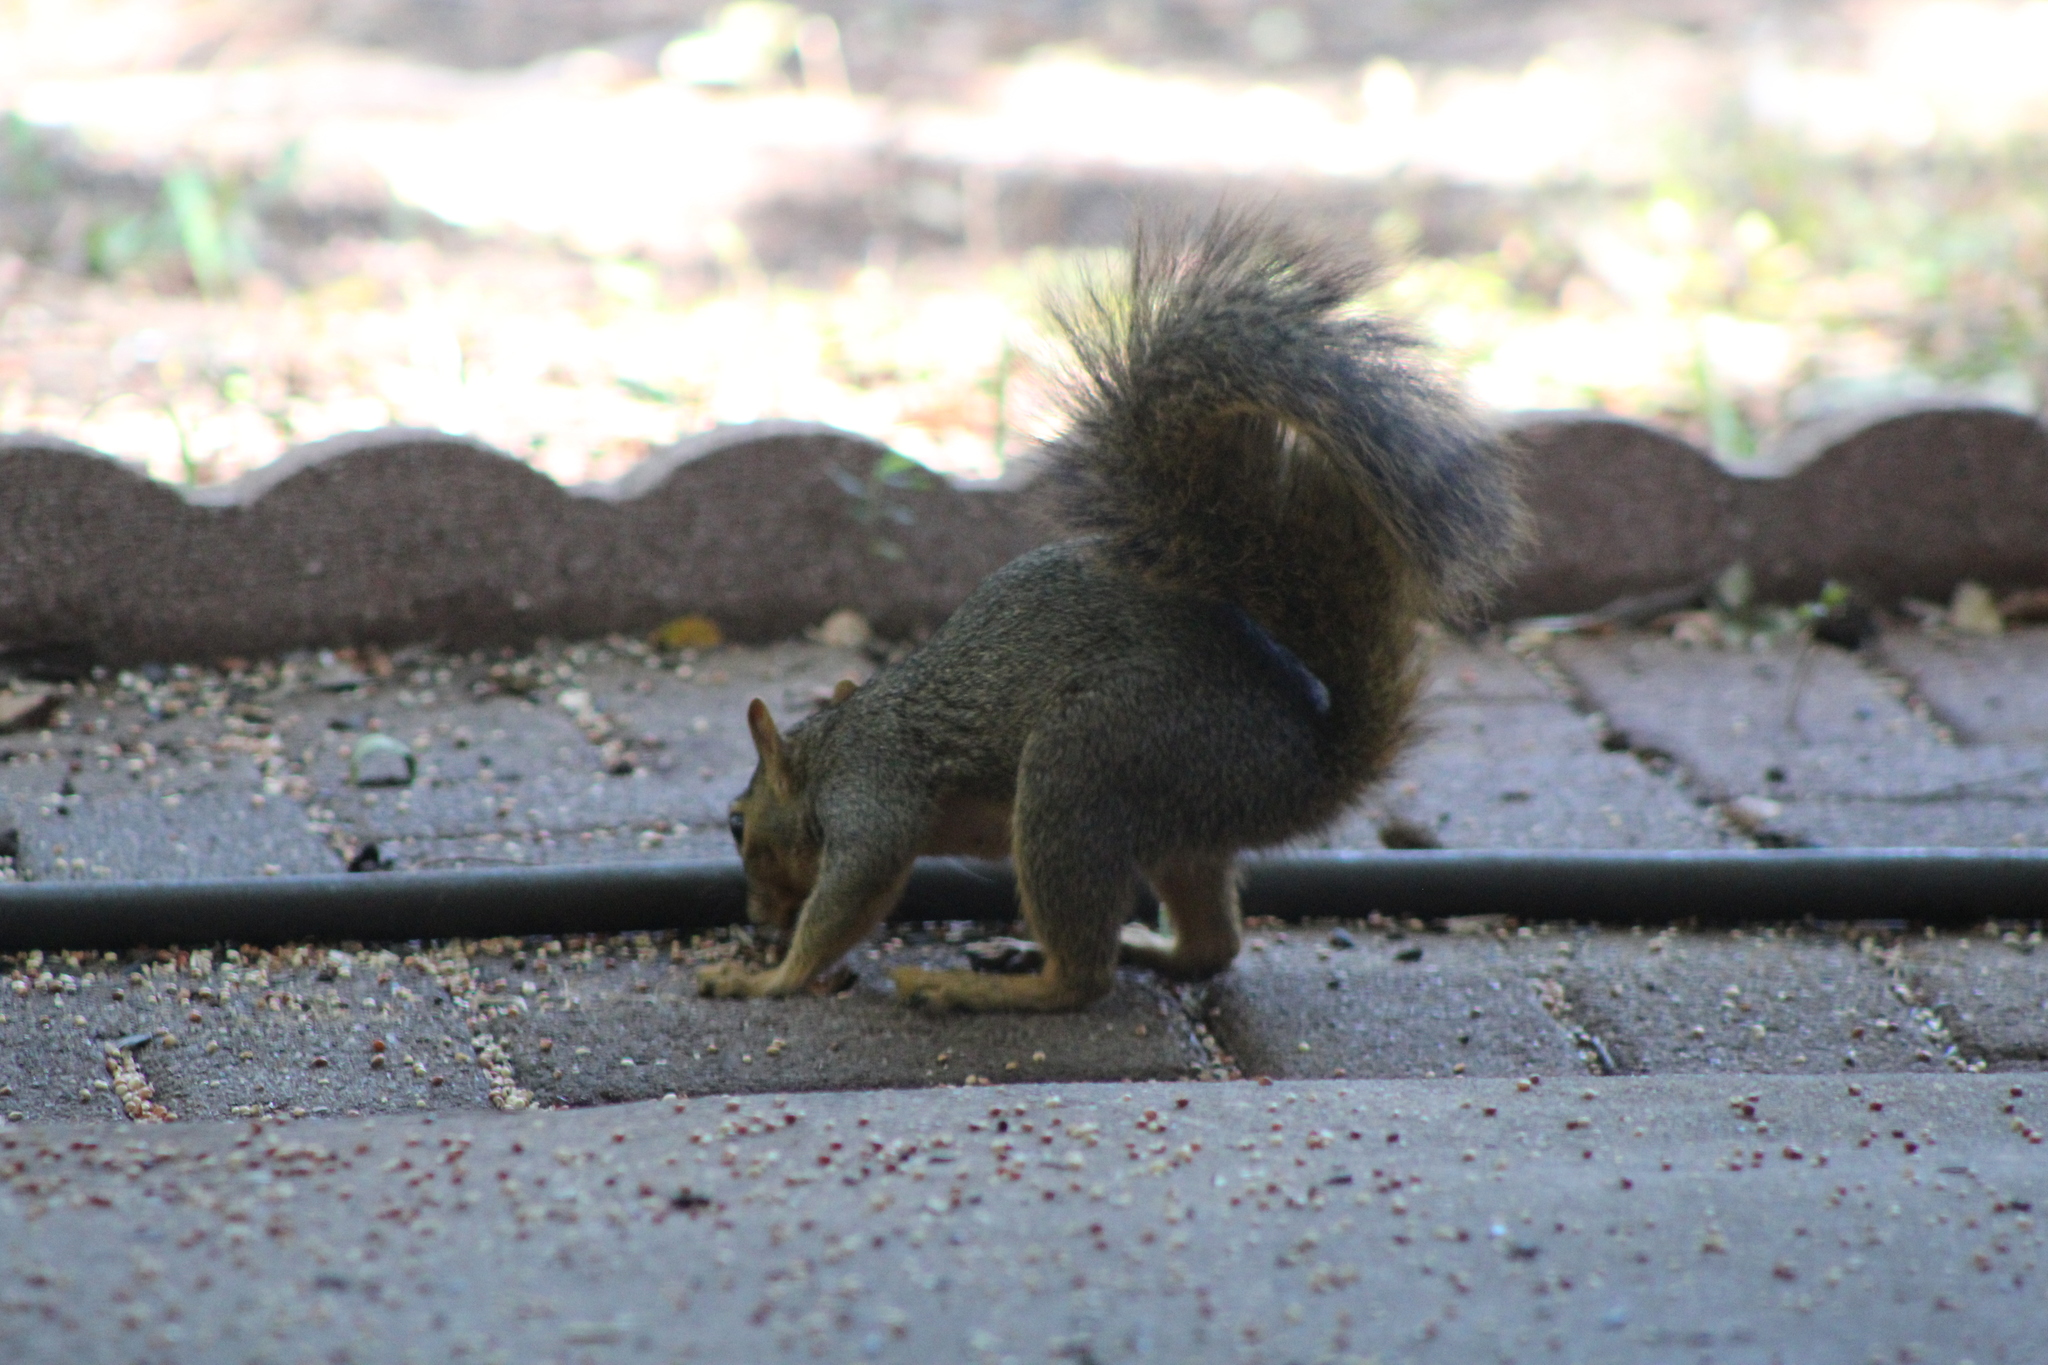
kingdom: Animalia
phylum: Chordata
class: Mammalia
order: Rodentia
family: Sciuridae
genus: Sciurus
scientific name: Sciurus niger
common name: Fox squirrel
